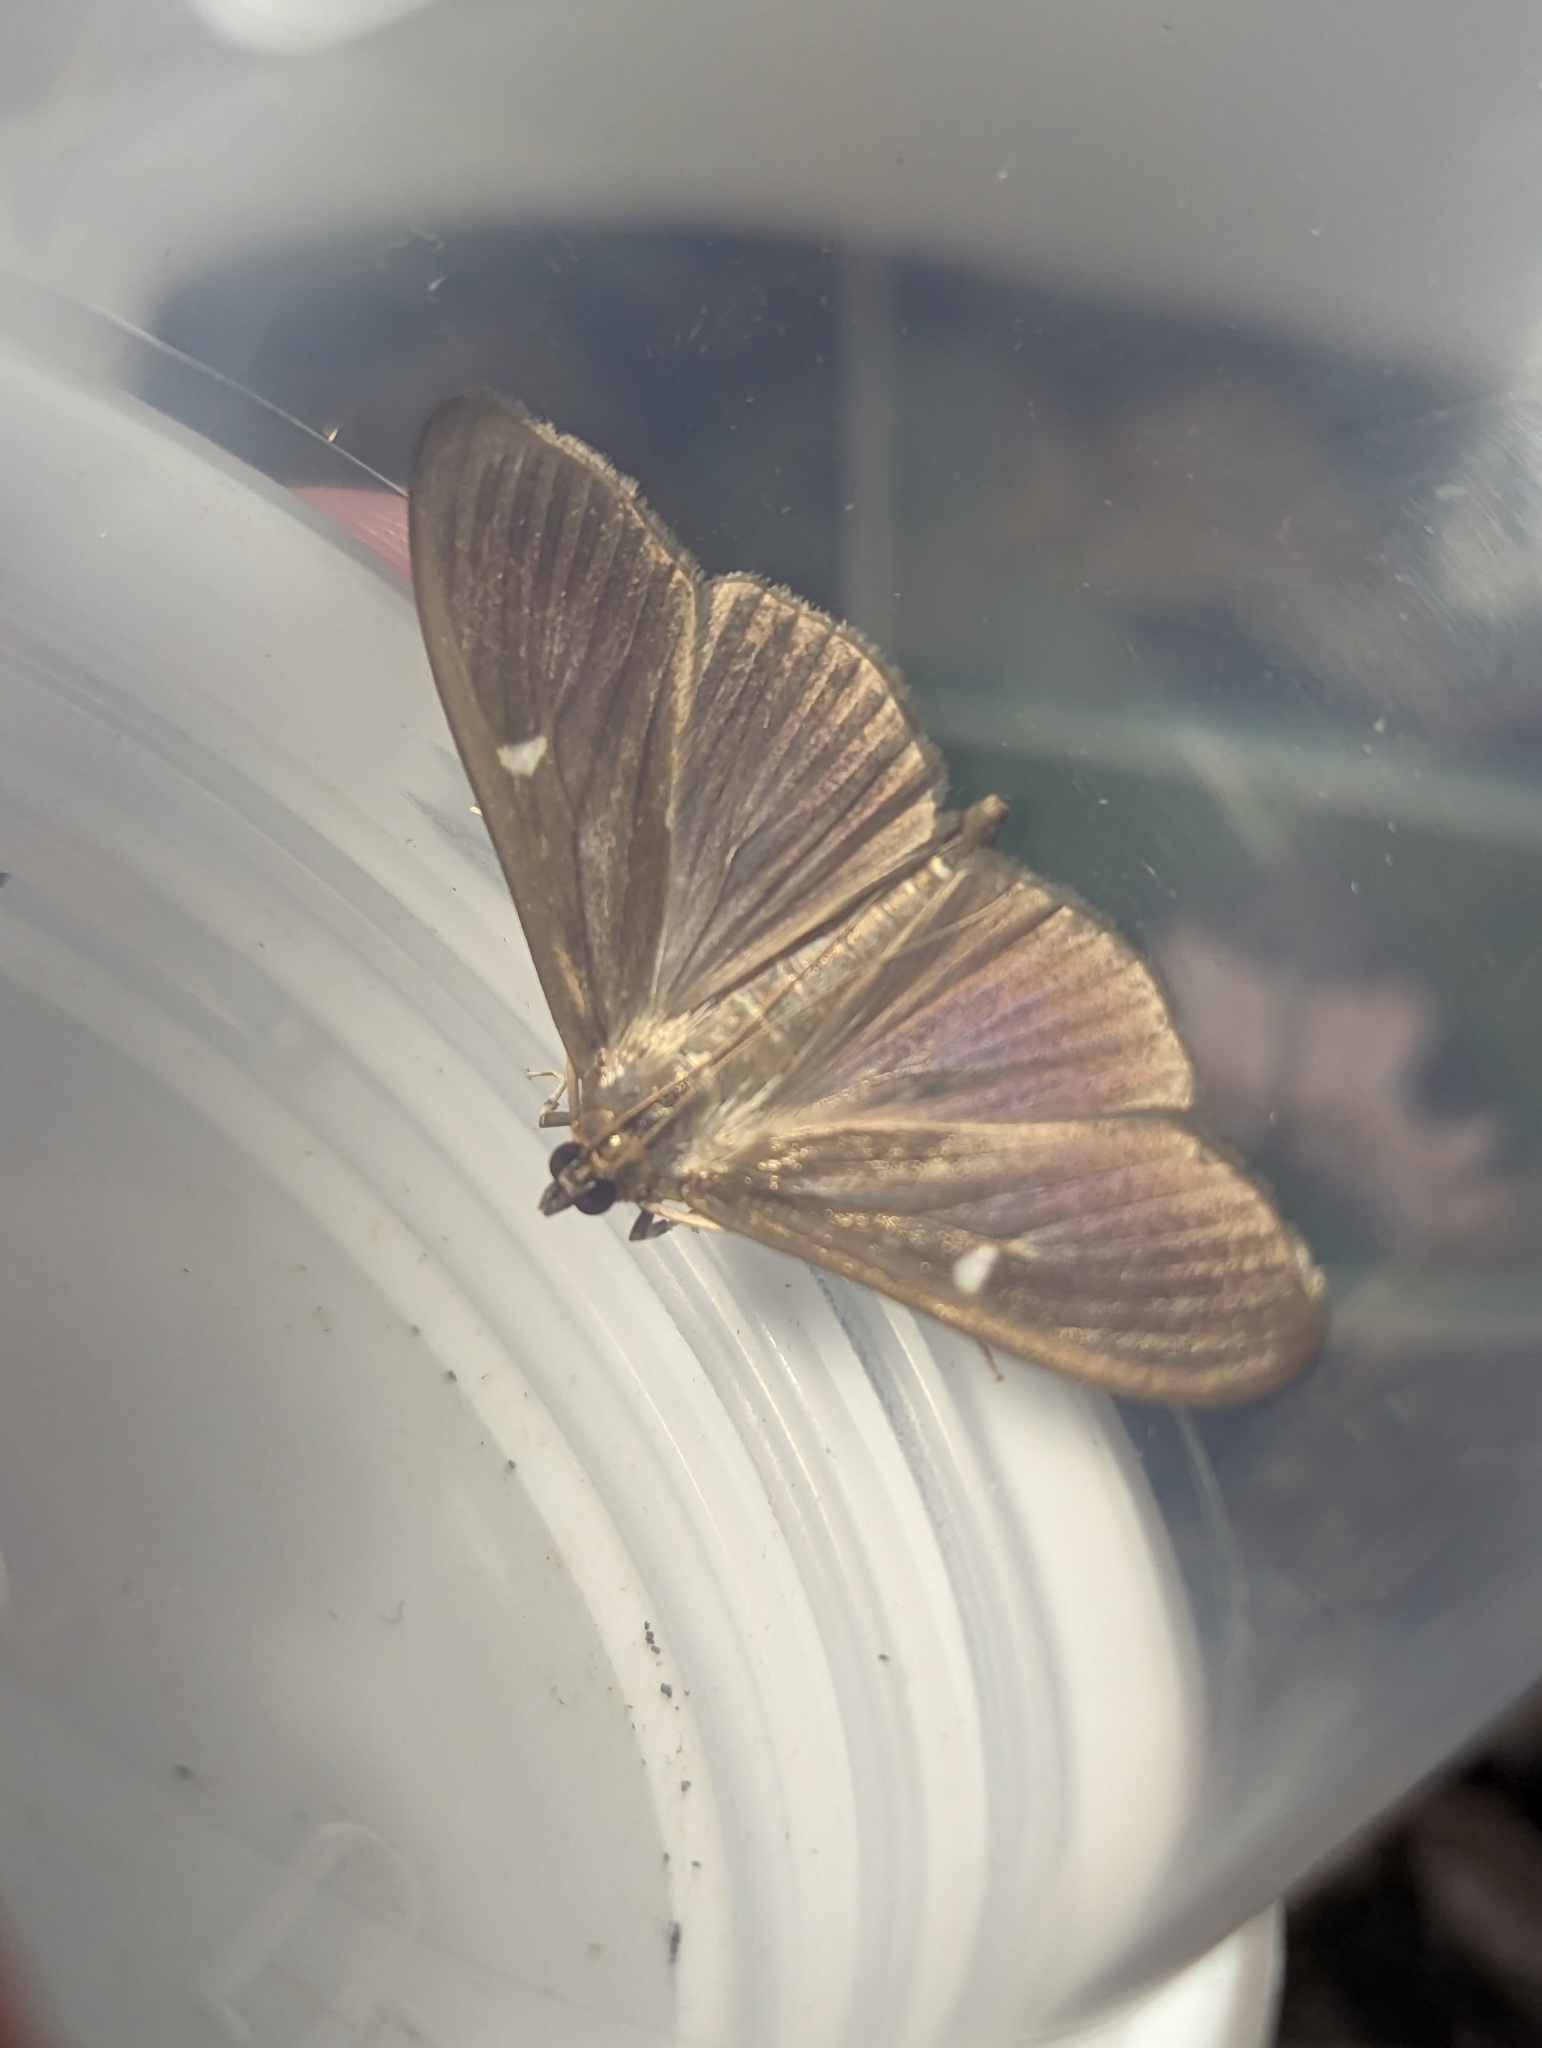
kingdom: Animalia
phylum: Arthropoda
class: Insecta
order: Lepidoptera
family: Crambidae
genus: Cydalima
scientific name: Cydalima perspectalis
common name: Box tree moth
